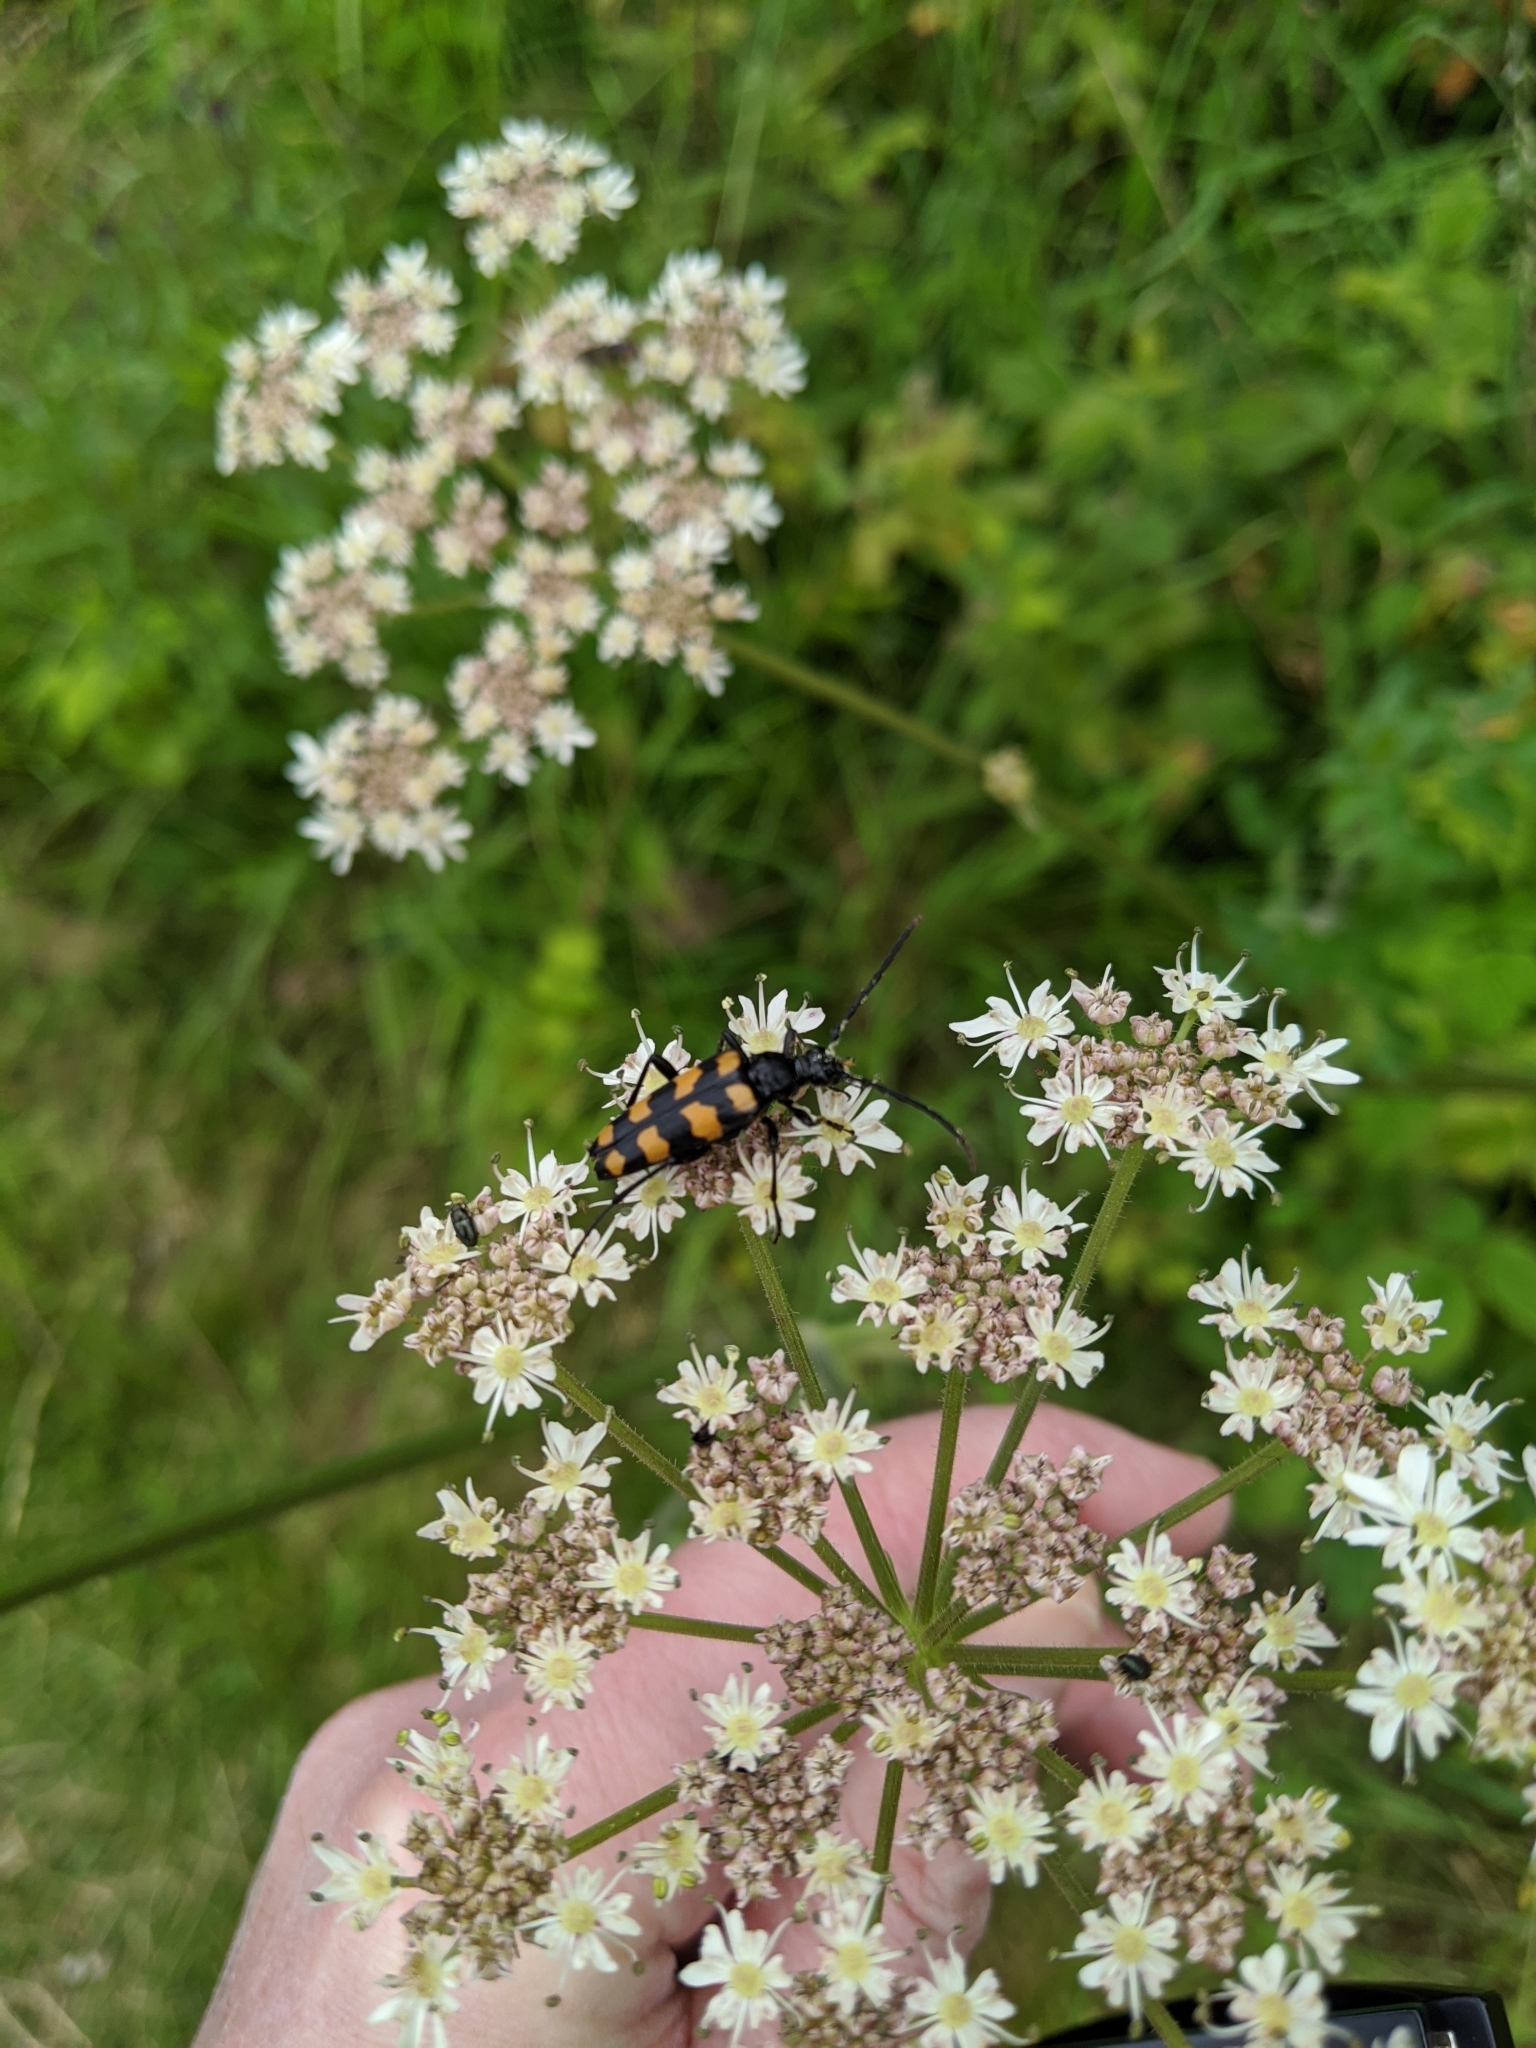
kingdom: Animalia
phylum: Arthropoda
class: Insecta
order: Coleoptera
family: Cerambycidae
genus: Leptura
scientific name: Leptura quadrifasciata
